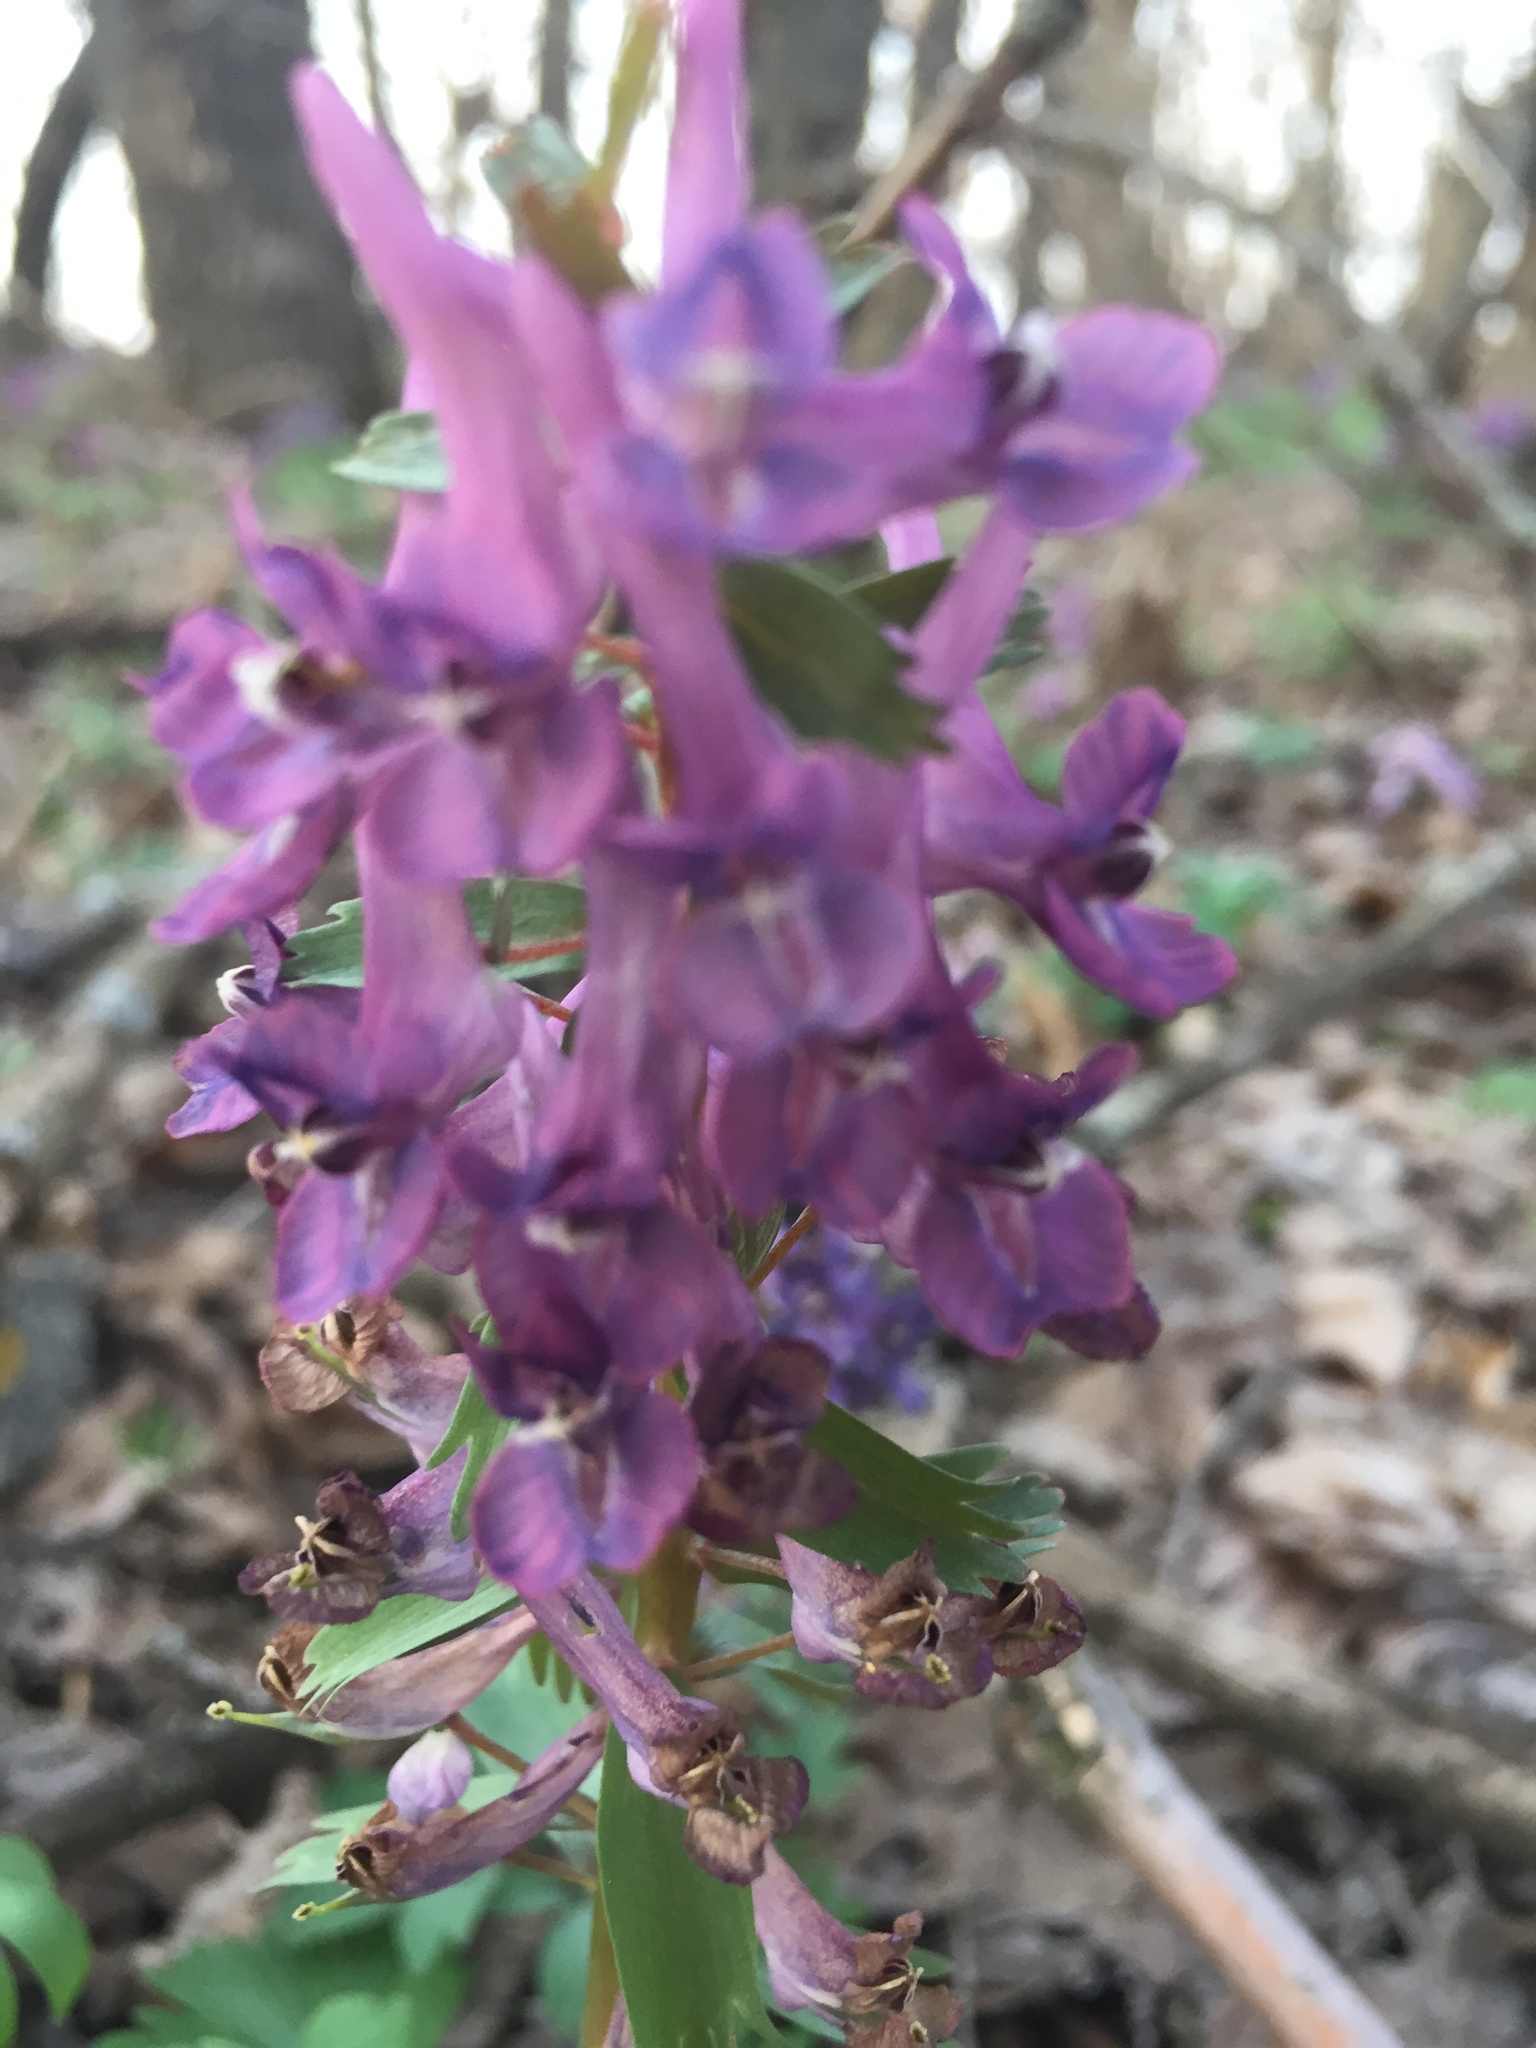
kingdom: Plantae
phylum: Tracheophyta
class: Magnoliopsida
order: Ranunculales
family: Papaveraceae
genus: Corydalis
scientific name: Corydalis solida
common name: Bird-in-a-bush
